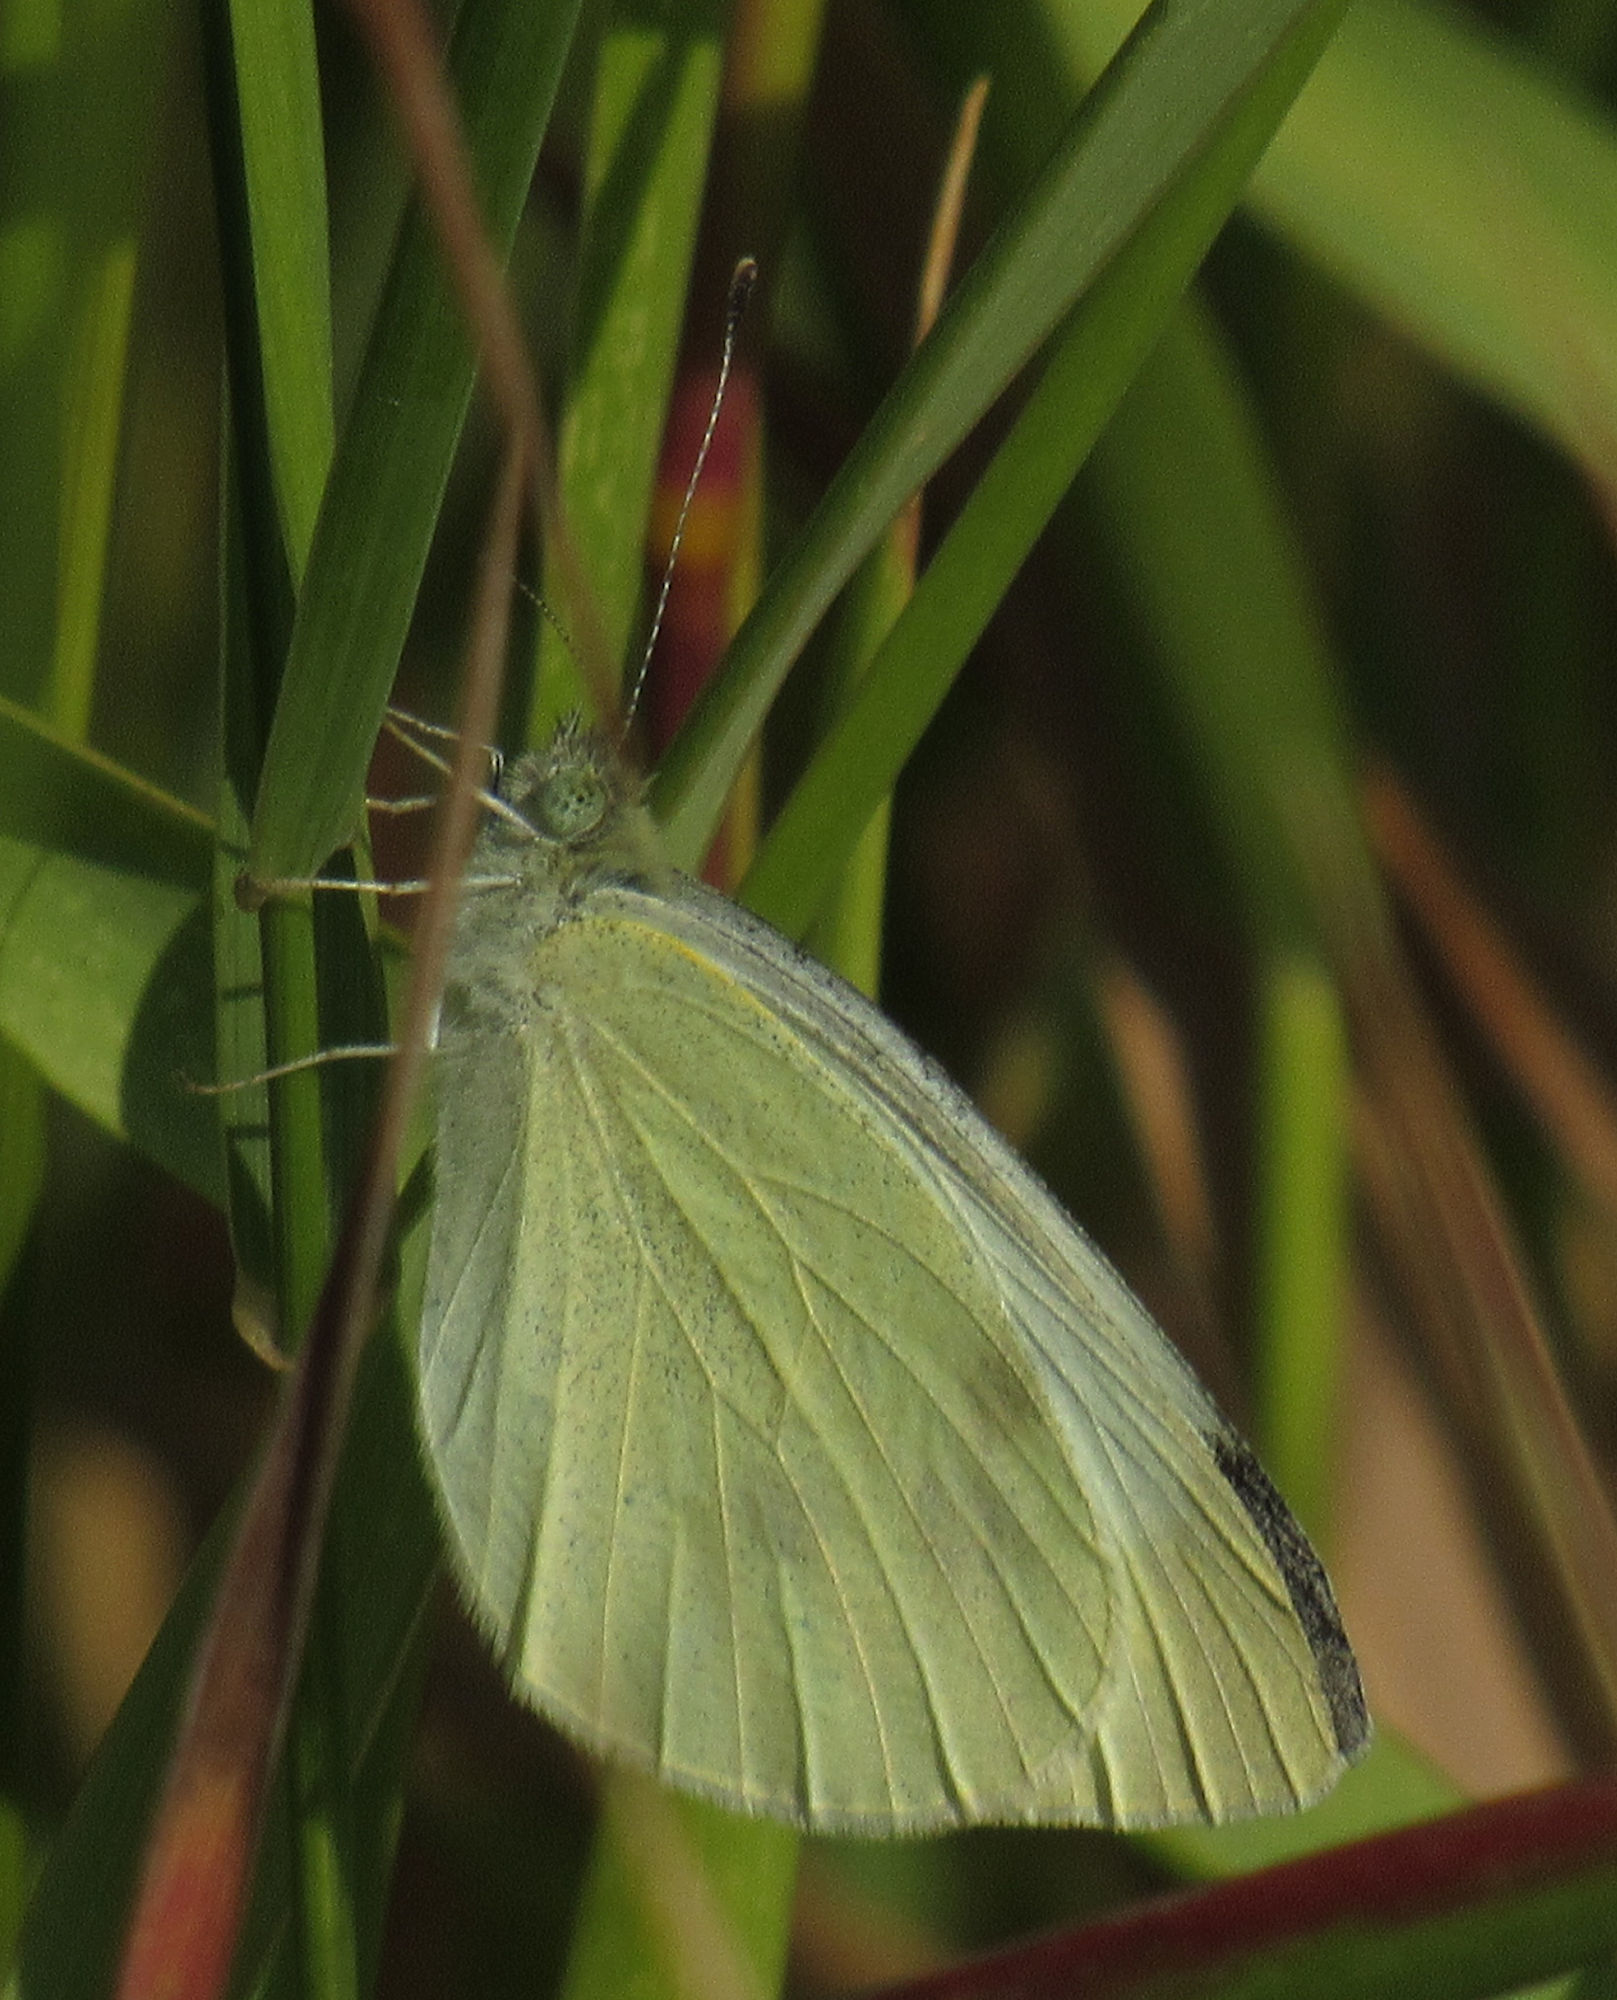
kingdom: Animalia
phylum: Arthropoda
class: Insecta
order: Lepidoptera
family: Pieridae
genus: Pieris
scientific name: Pieris rapae
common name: Small white
